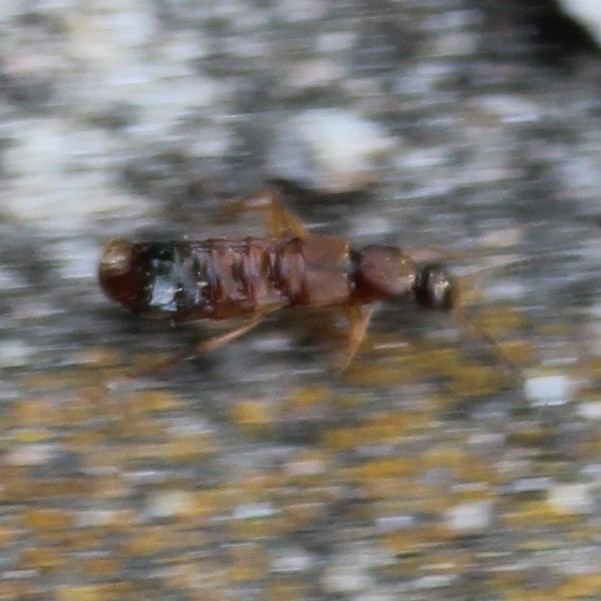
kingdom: Animalia
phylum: Arthropoda
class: Insecta
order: Coleoptera
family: Staphylinidae
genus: Drusilla
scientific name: Drusilla canaliculata
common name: Rove beetle
